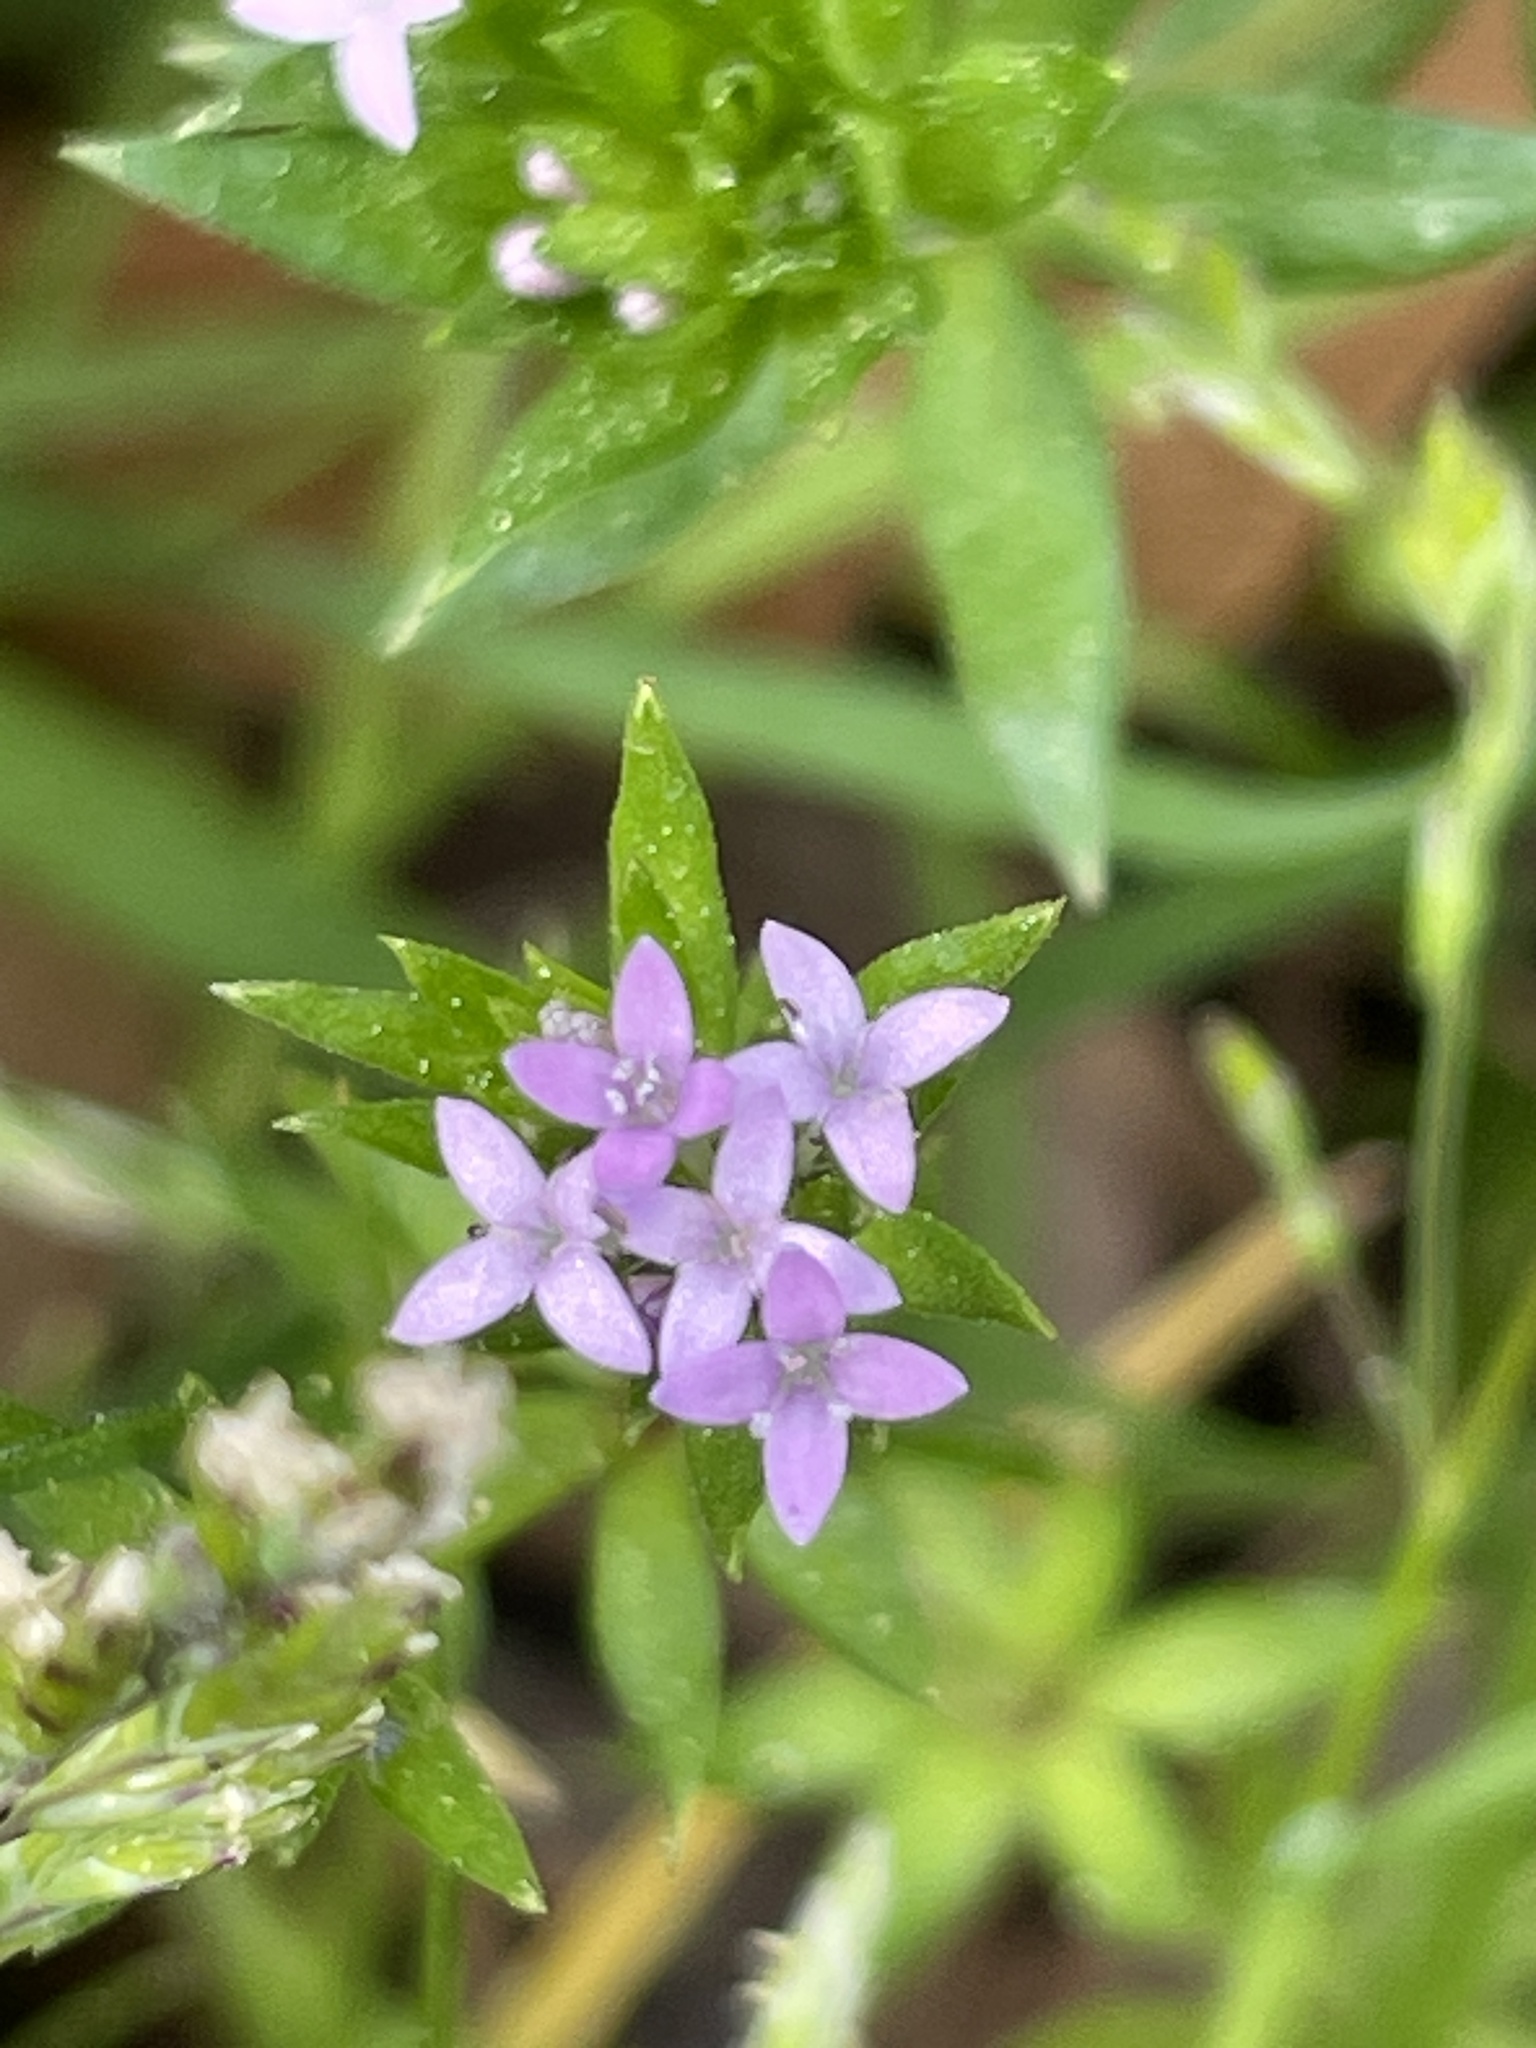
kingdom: Plantae
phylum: Tracheophyta
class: Magnoliopsida
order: Gentianales
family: Rubiaceae
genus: Sherardia
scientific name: Sherardia arvensis
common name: Field madder
